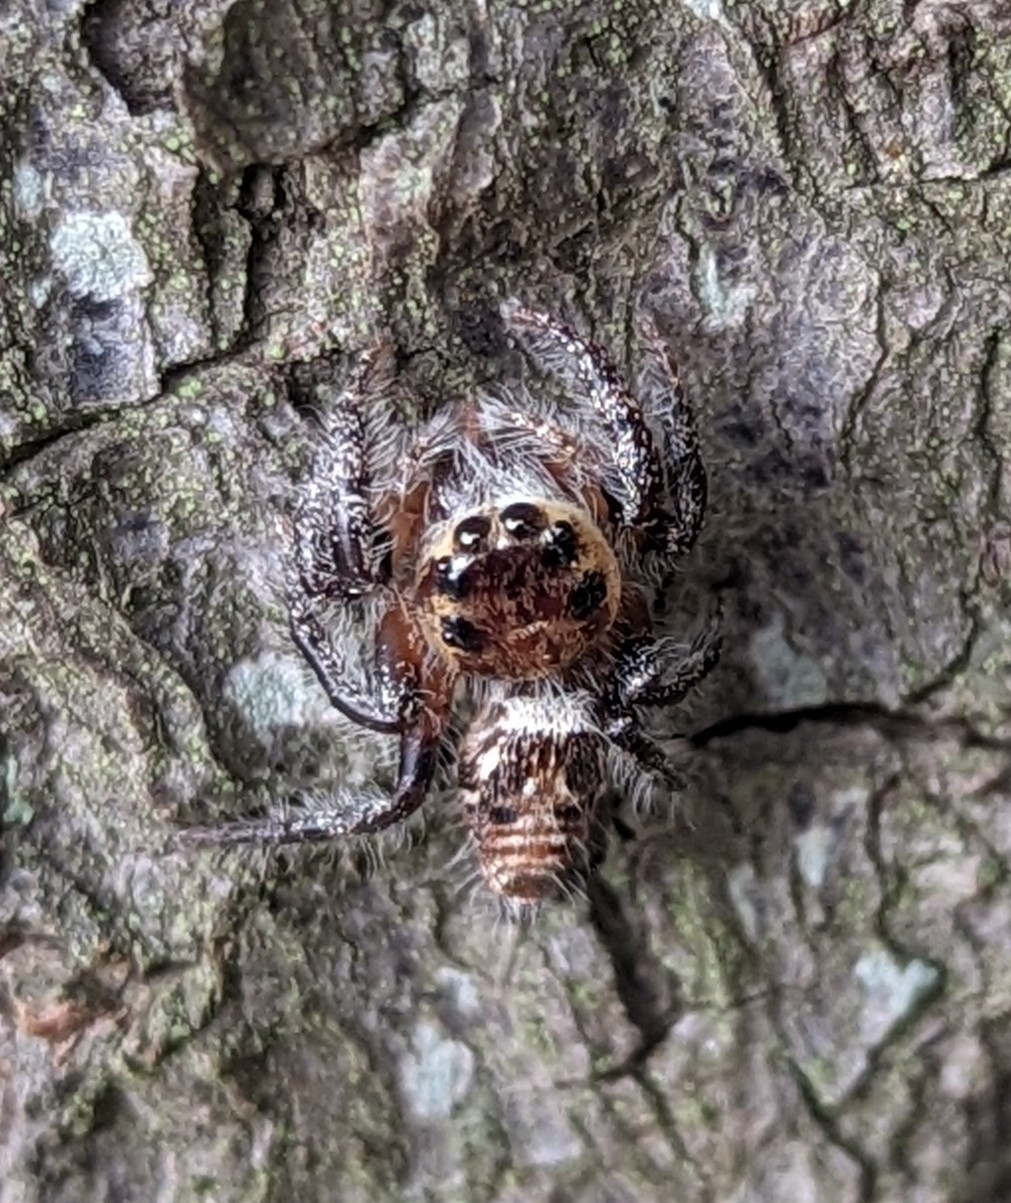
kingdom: Animalia
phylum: Arthropoda
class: Arachnida
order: Araneae
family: Salticidae
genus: Hyllus
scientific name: Hyllus semicupreus
